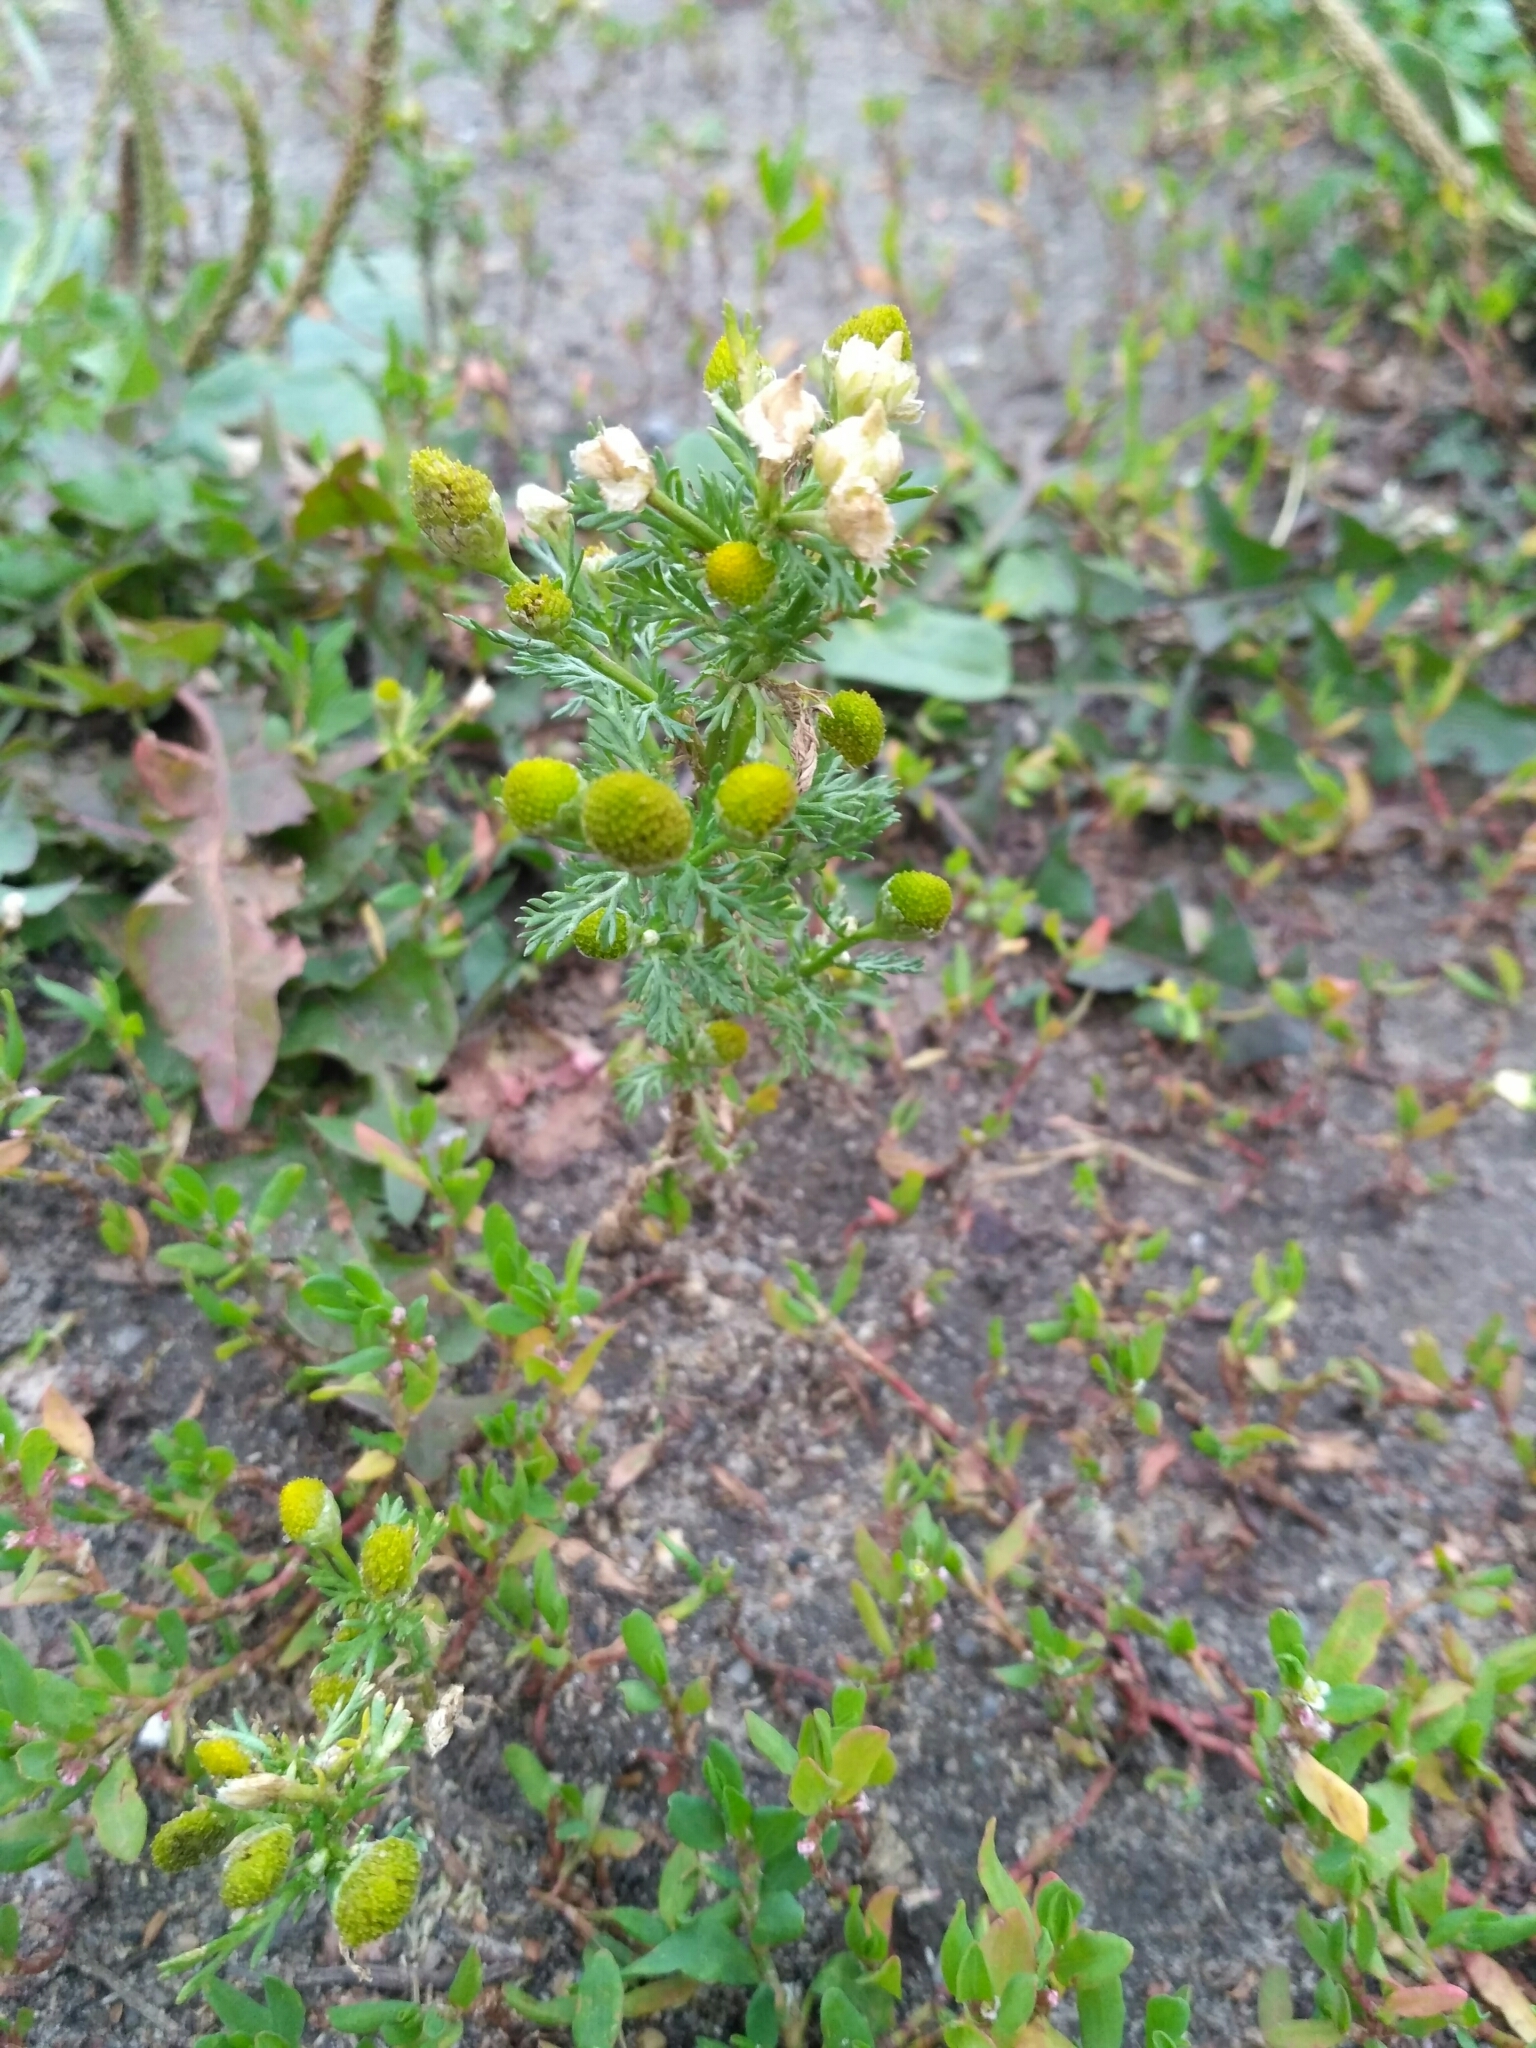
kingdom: Plantae
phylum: Tracheophyta
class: Magnoliopsida
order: Asterales
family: Asteraceae
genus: Matricaria
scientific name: Matricaria discoidea
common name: Disc mayweed
